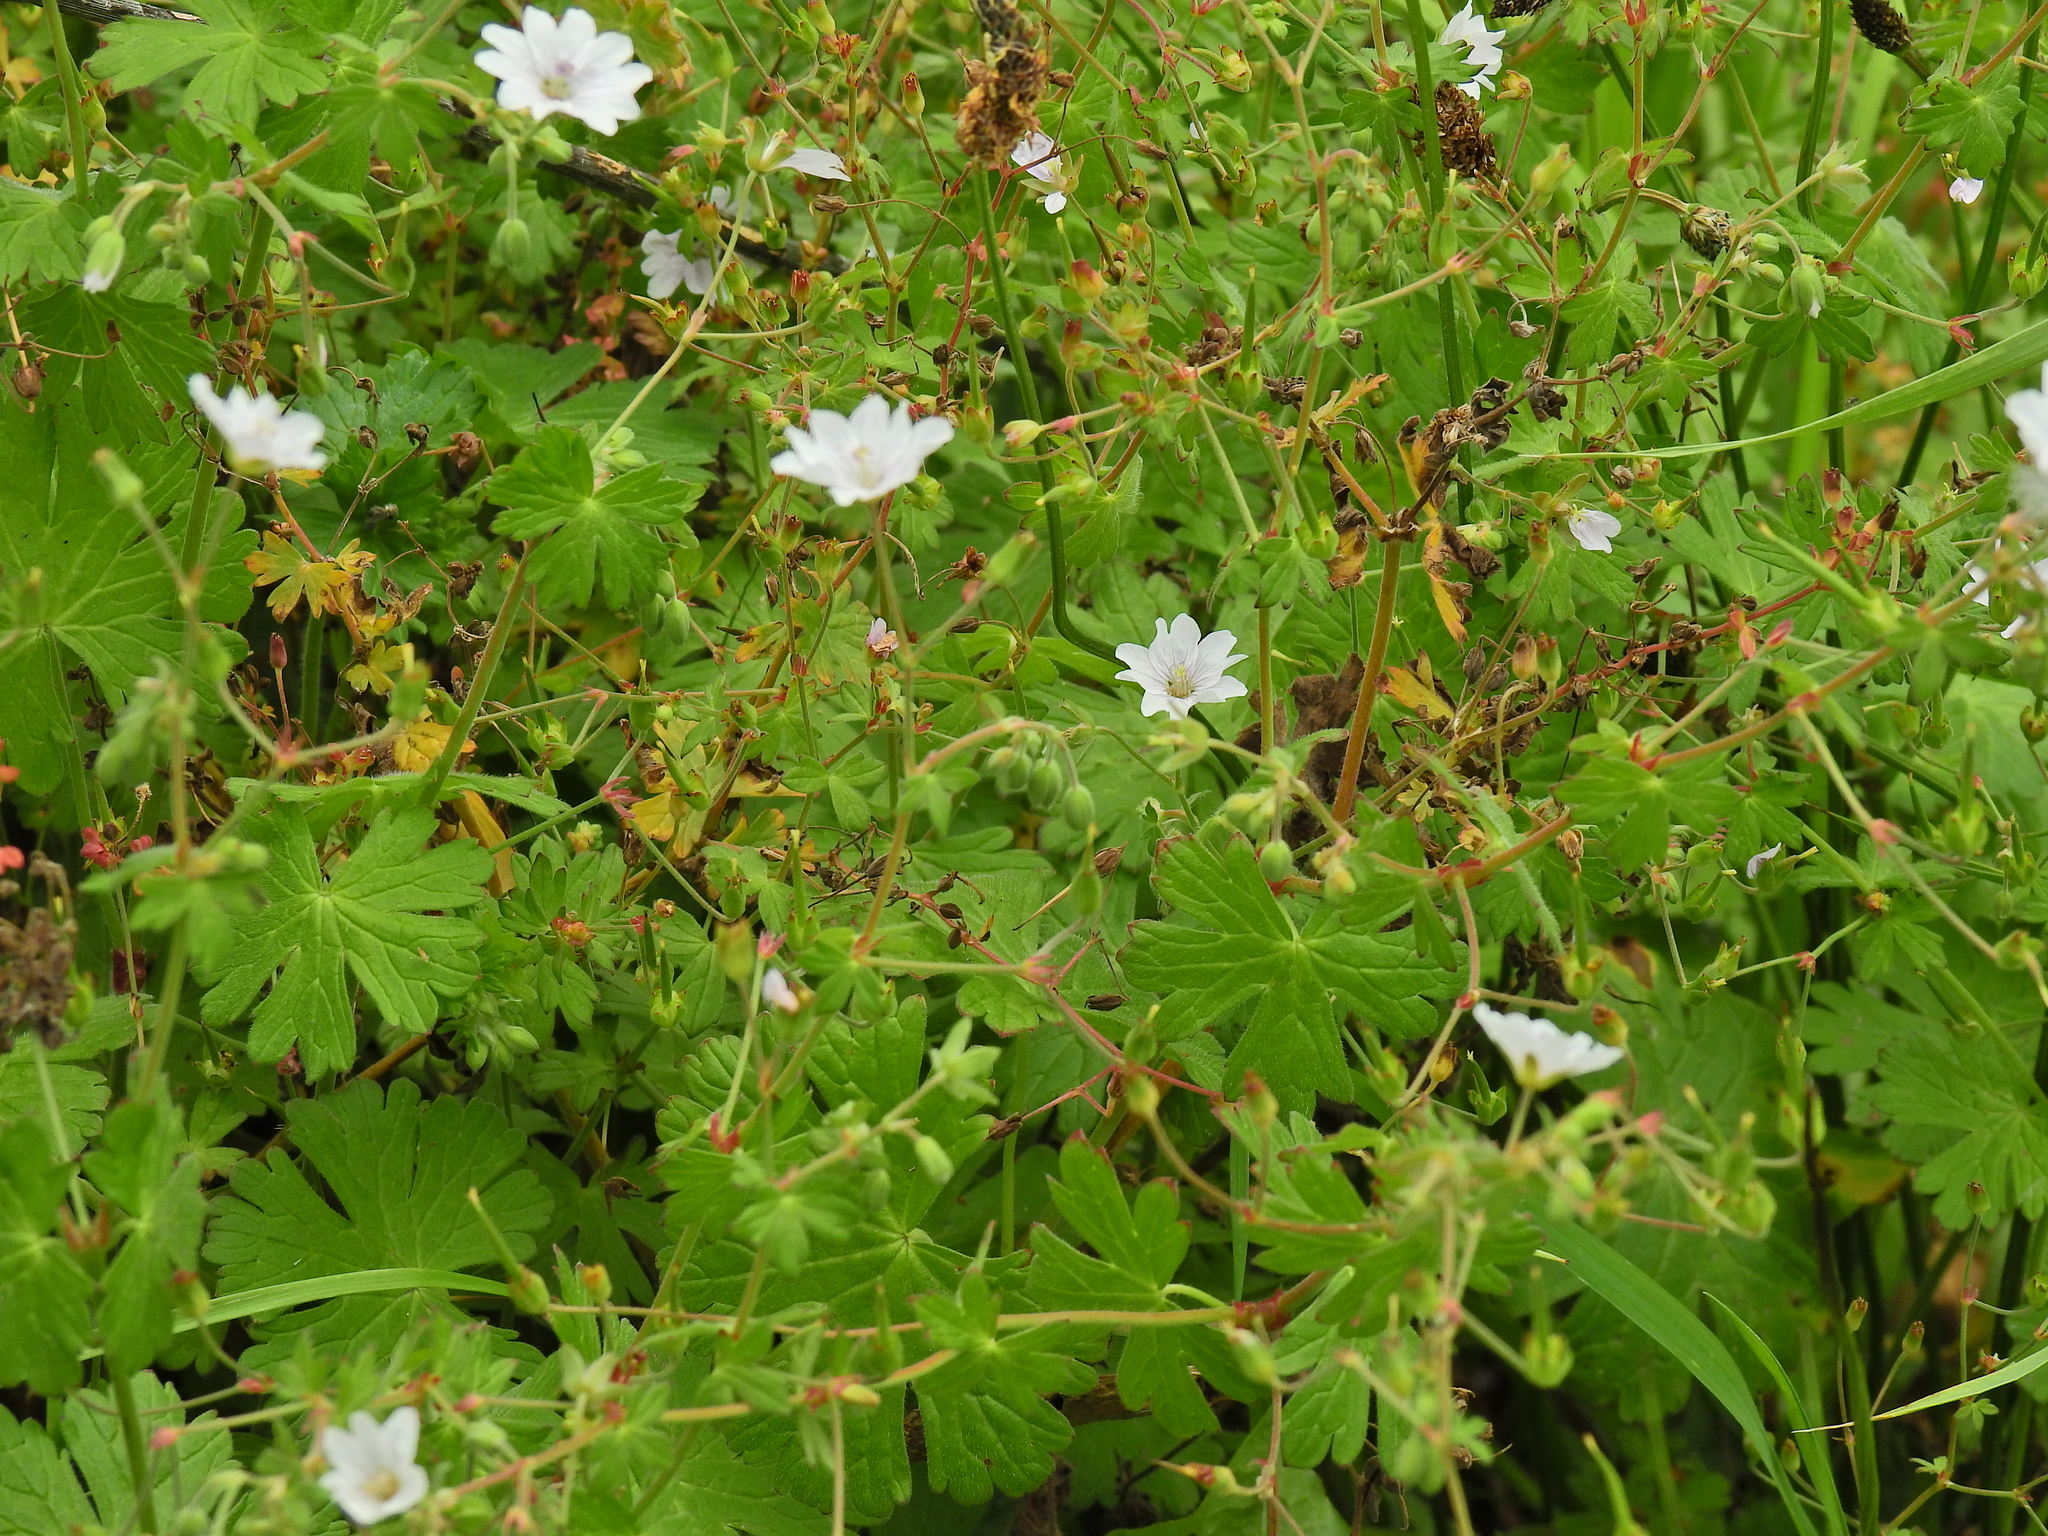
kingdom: Plantae
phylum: Tracheophyta
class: Magnoliopsida
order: Geraniales
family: Geraniaceae
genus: Geranium
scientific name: Geranium pyrenaicum
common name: Hedgerow crane's-bill
